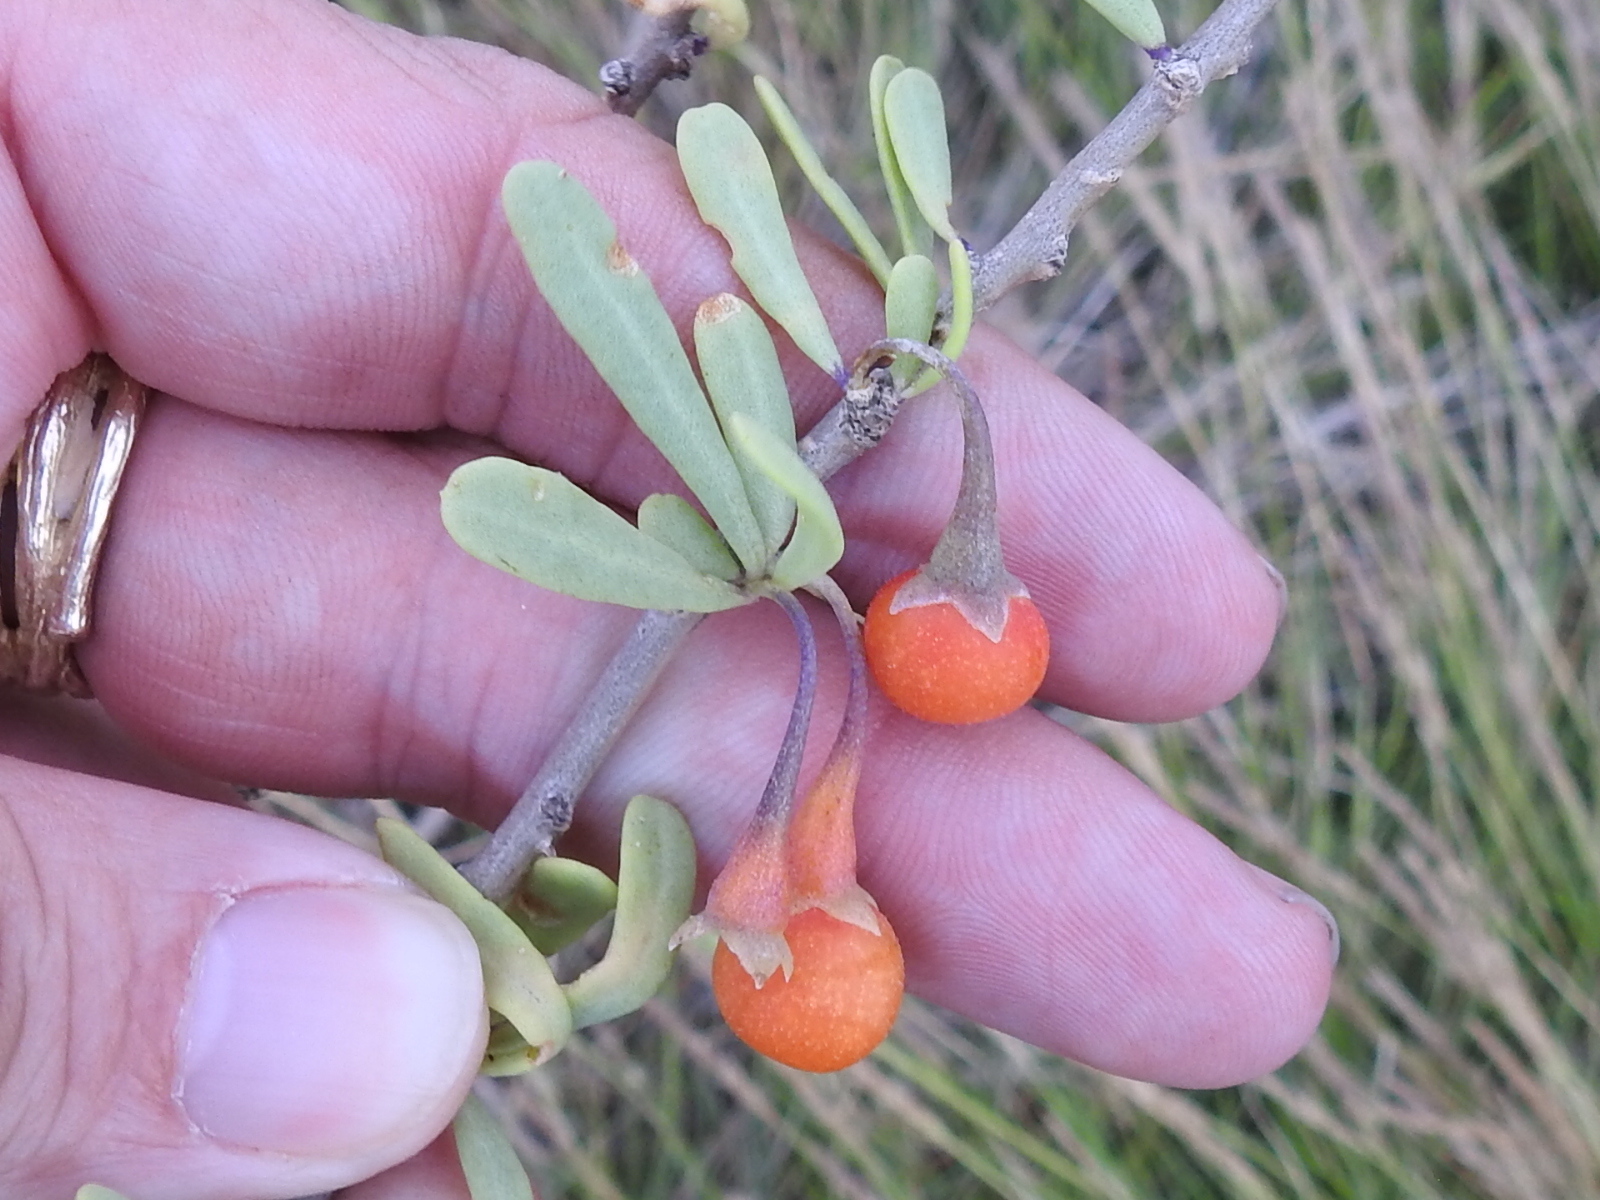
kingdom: Plantae
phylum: Tracheophyta
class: Magnoliopsida
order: Solanales
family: Solanaceae
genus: Lycium
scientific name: Lycium carolinianum
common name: Christmasberry
